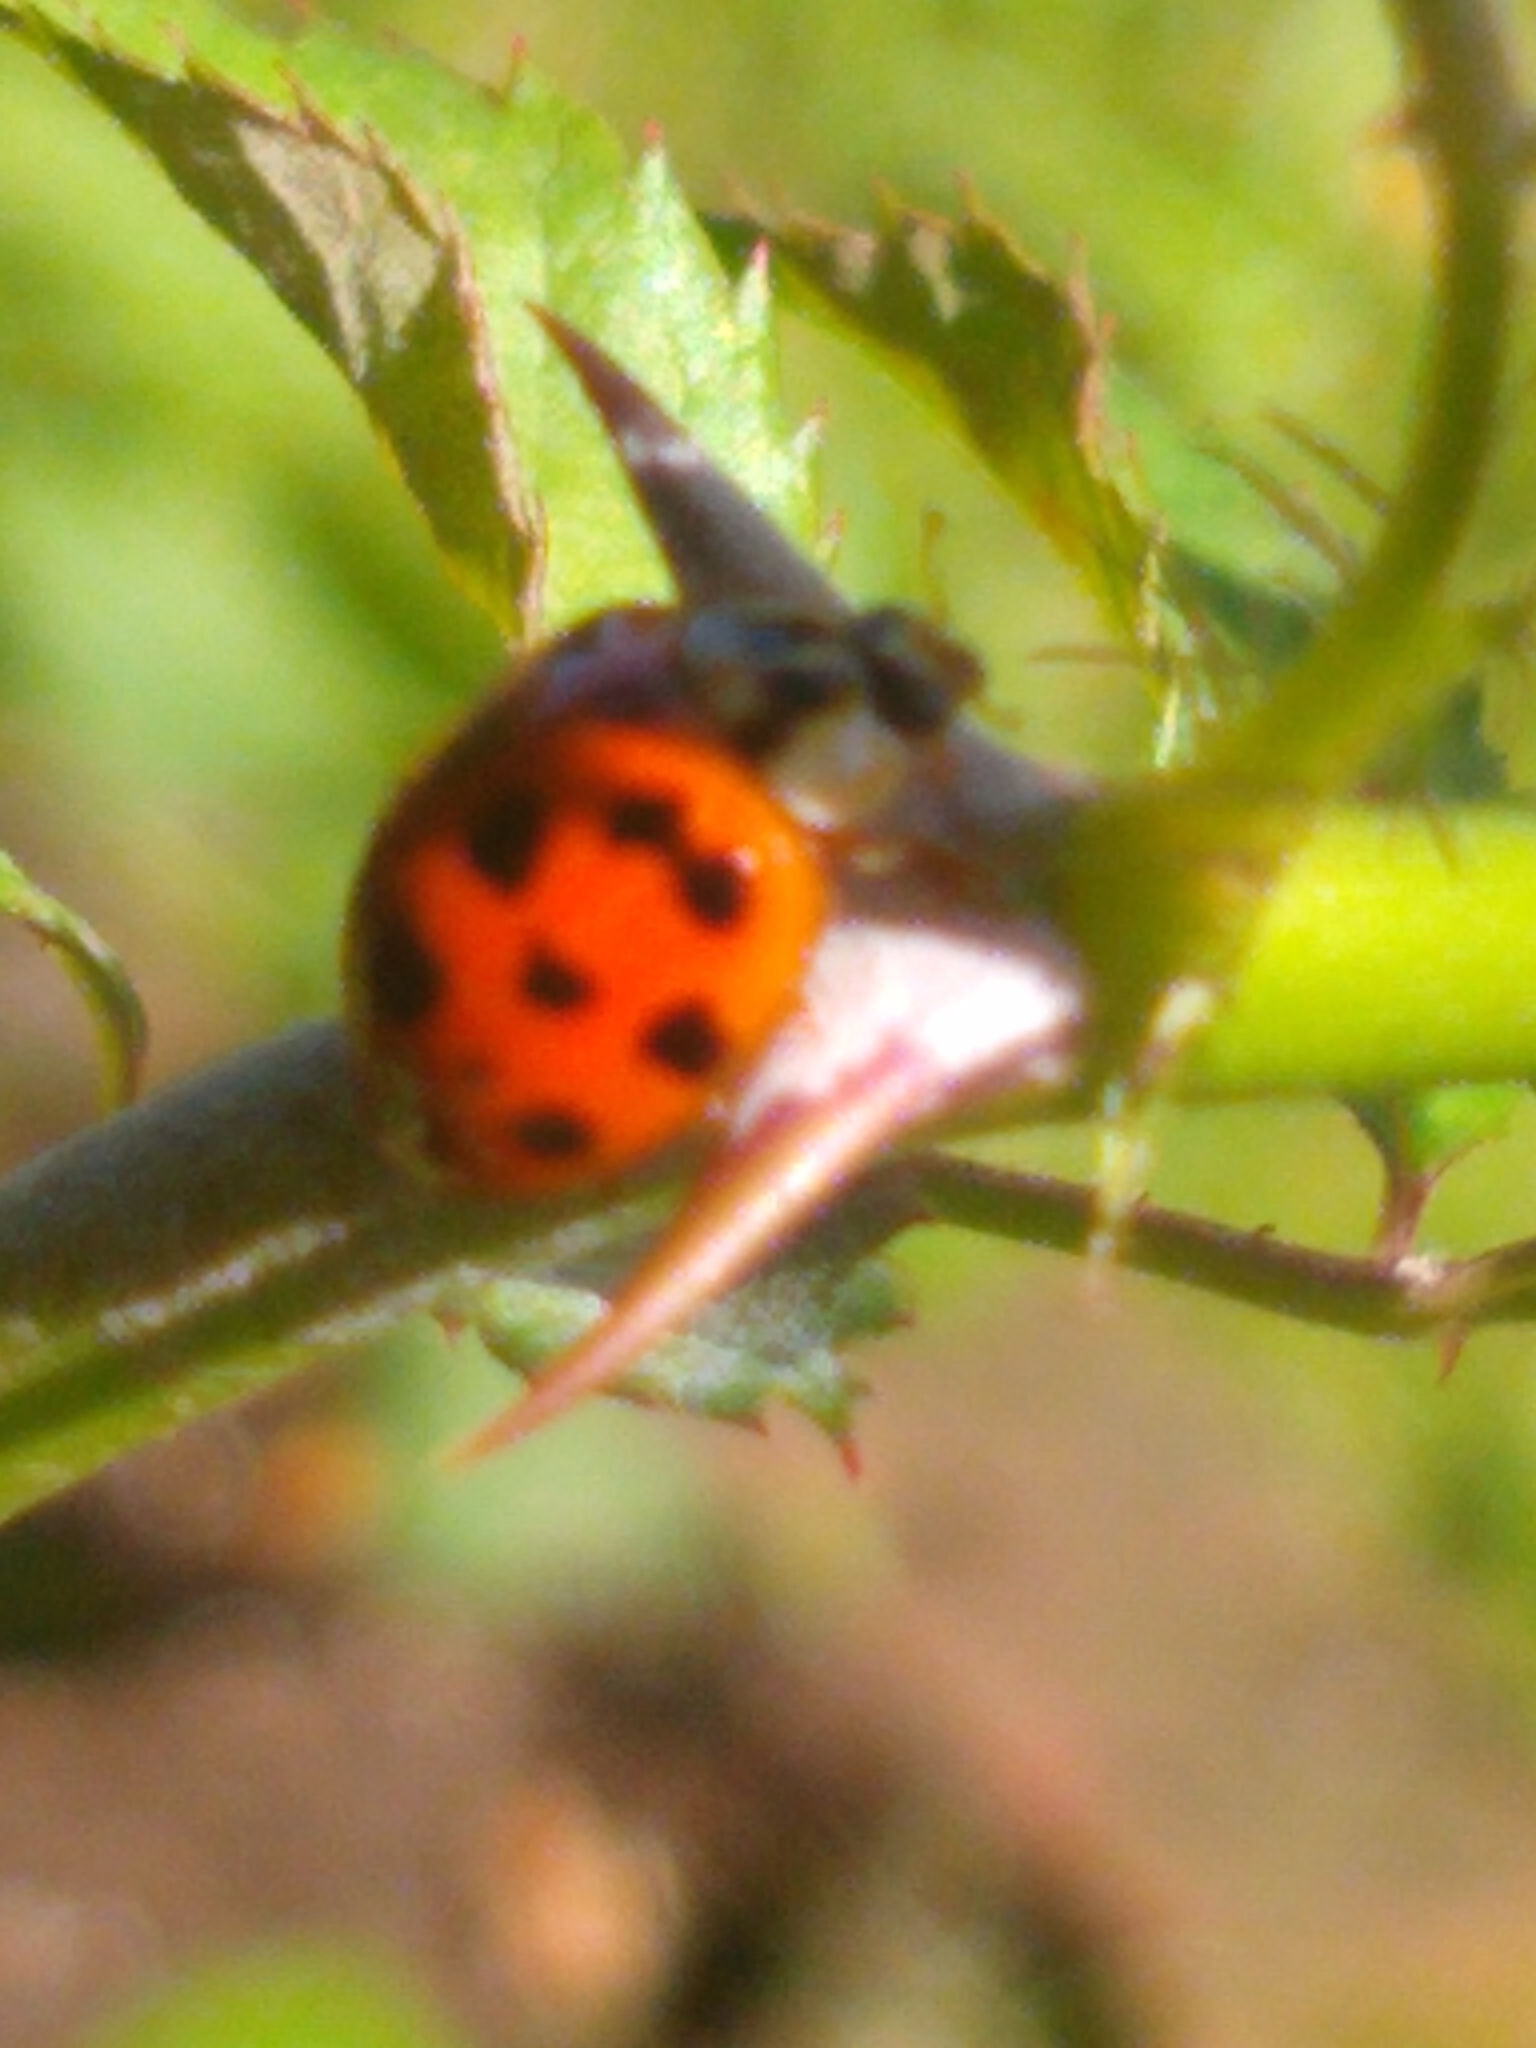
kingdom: Animalia
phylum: Arthropoda
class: Insecta
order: Coleoptera
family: Coccinellidae
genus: Harmonia
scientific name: Harmonia axyridis
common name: Harlequin ladybird
